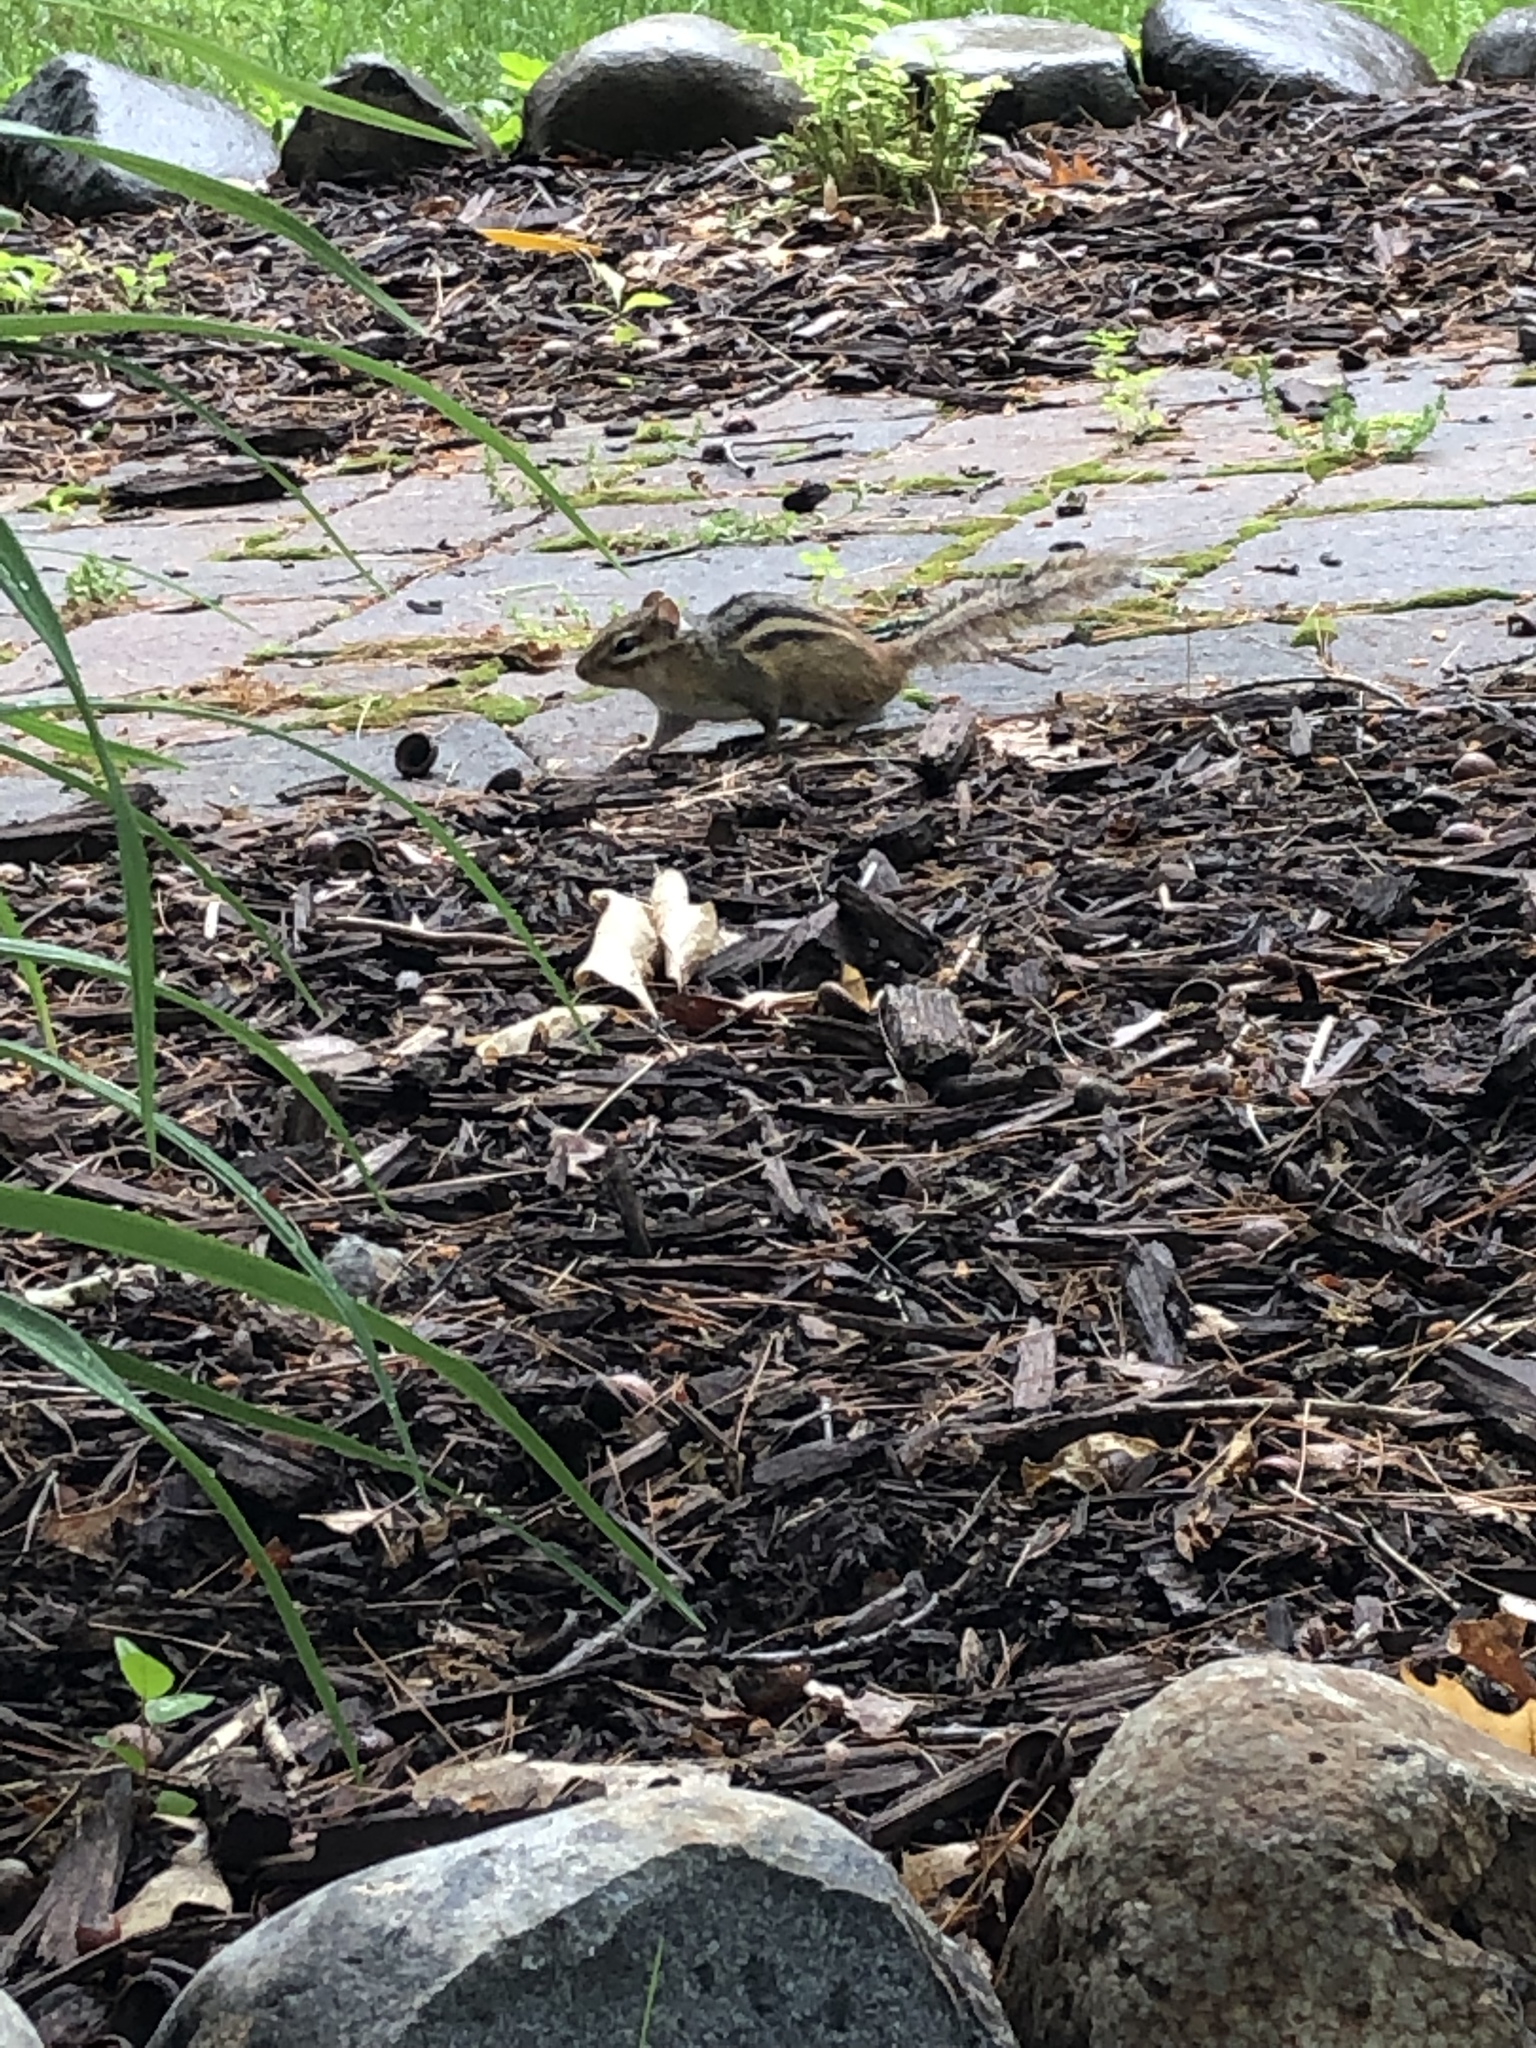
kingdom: Animalia
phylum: Chordata
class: Mammalia
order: Rodentia
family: Sciuridae
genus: Tamias
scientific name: Tamias striatus
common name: Eastern chipmunk
